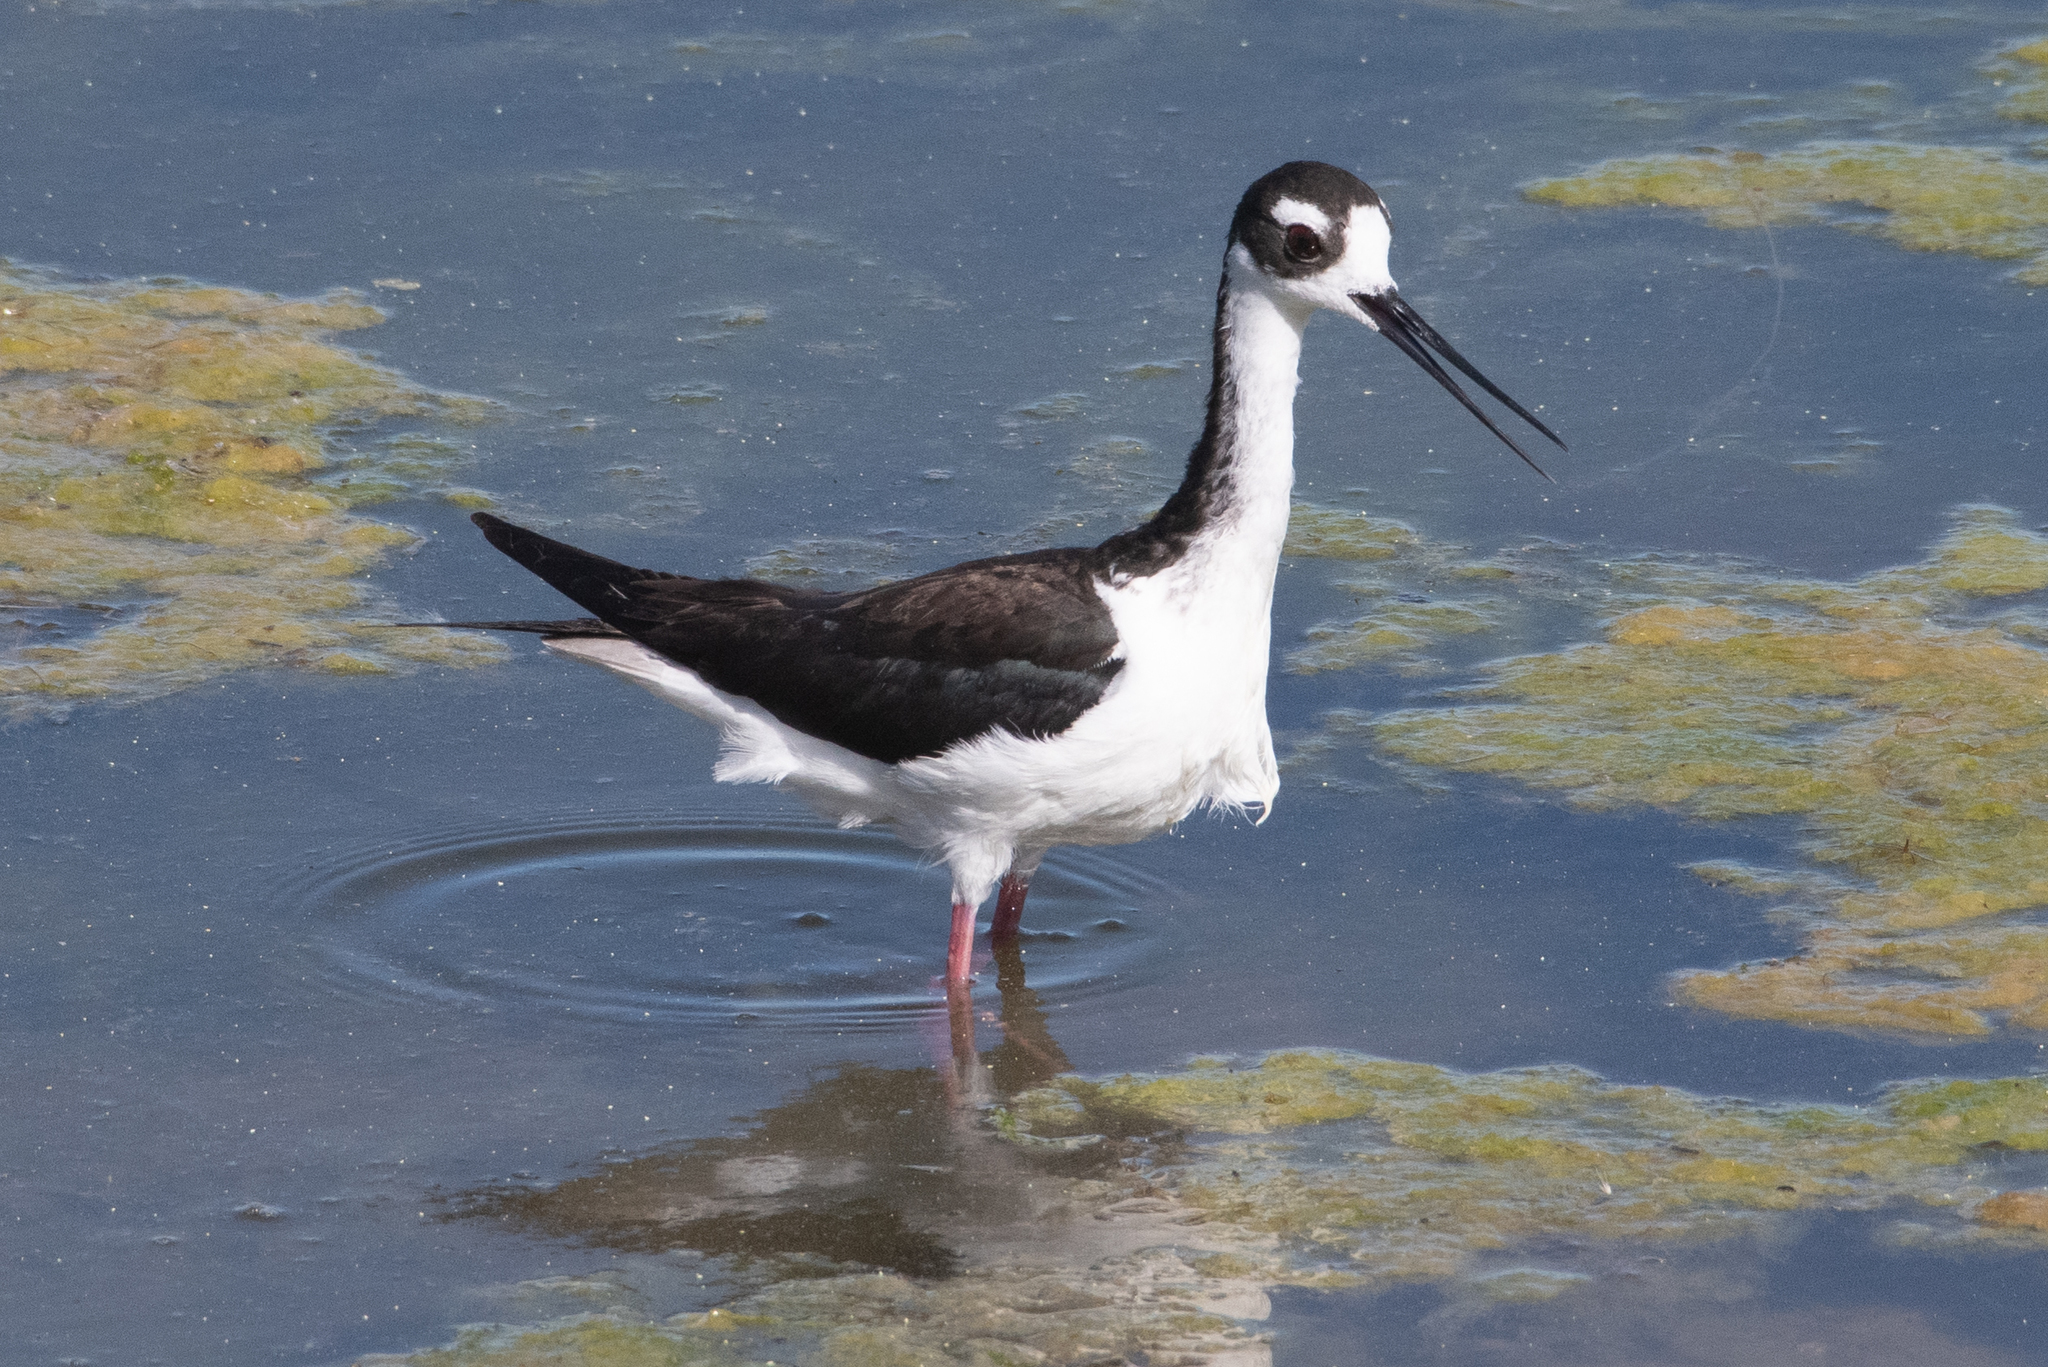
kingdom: Animalia
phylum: Chordata
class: Aves
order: Charadriiformes
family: Recurvirostridae
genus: Himantopus
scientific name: Himantopus mexicanus
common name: Black-necked stilt
